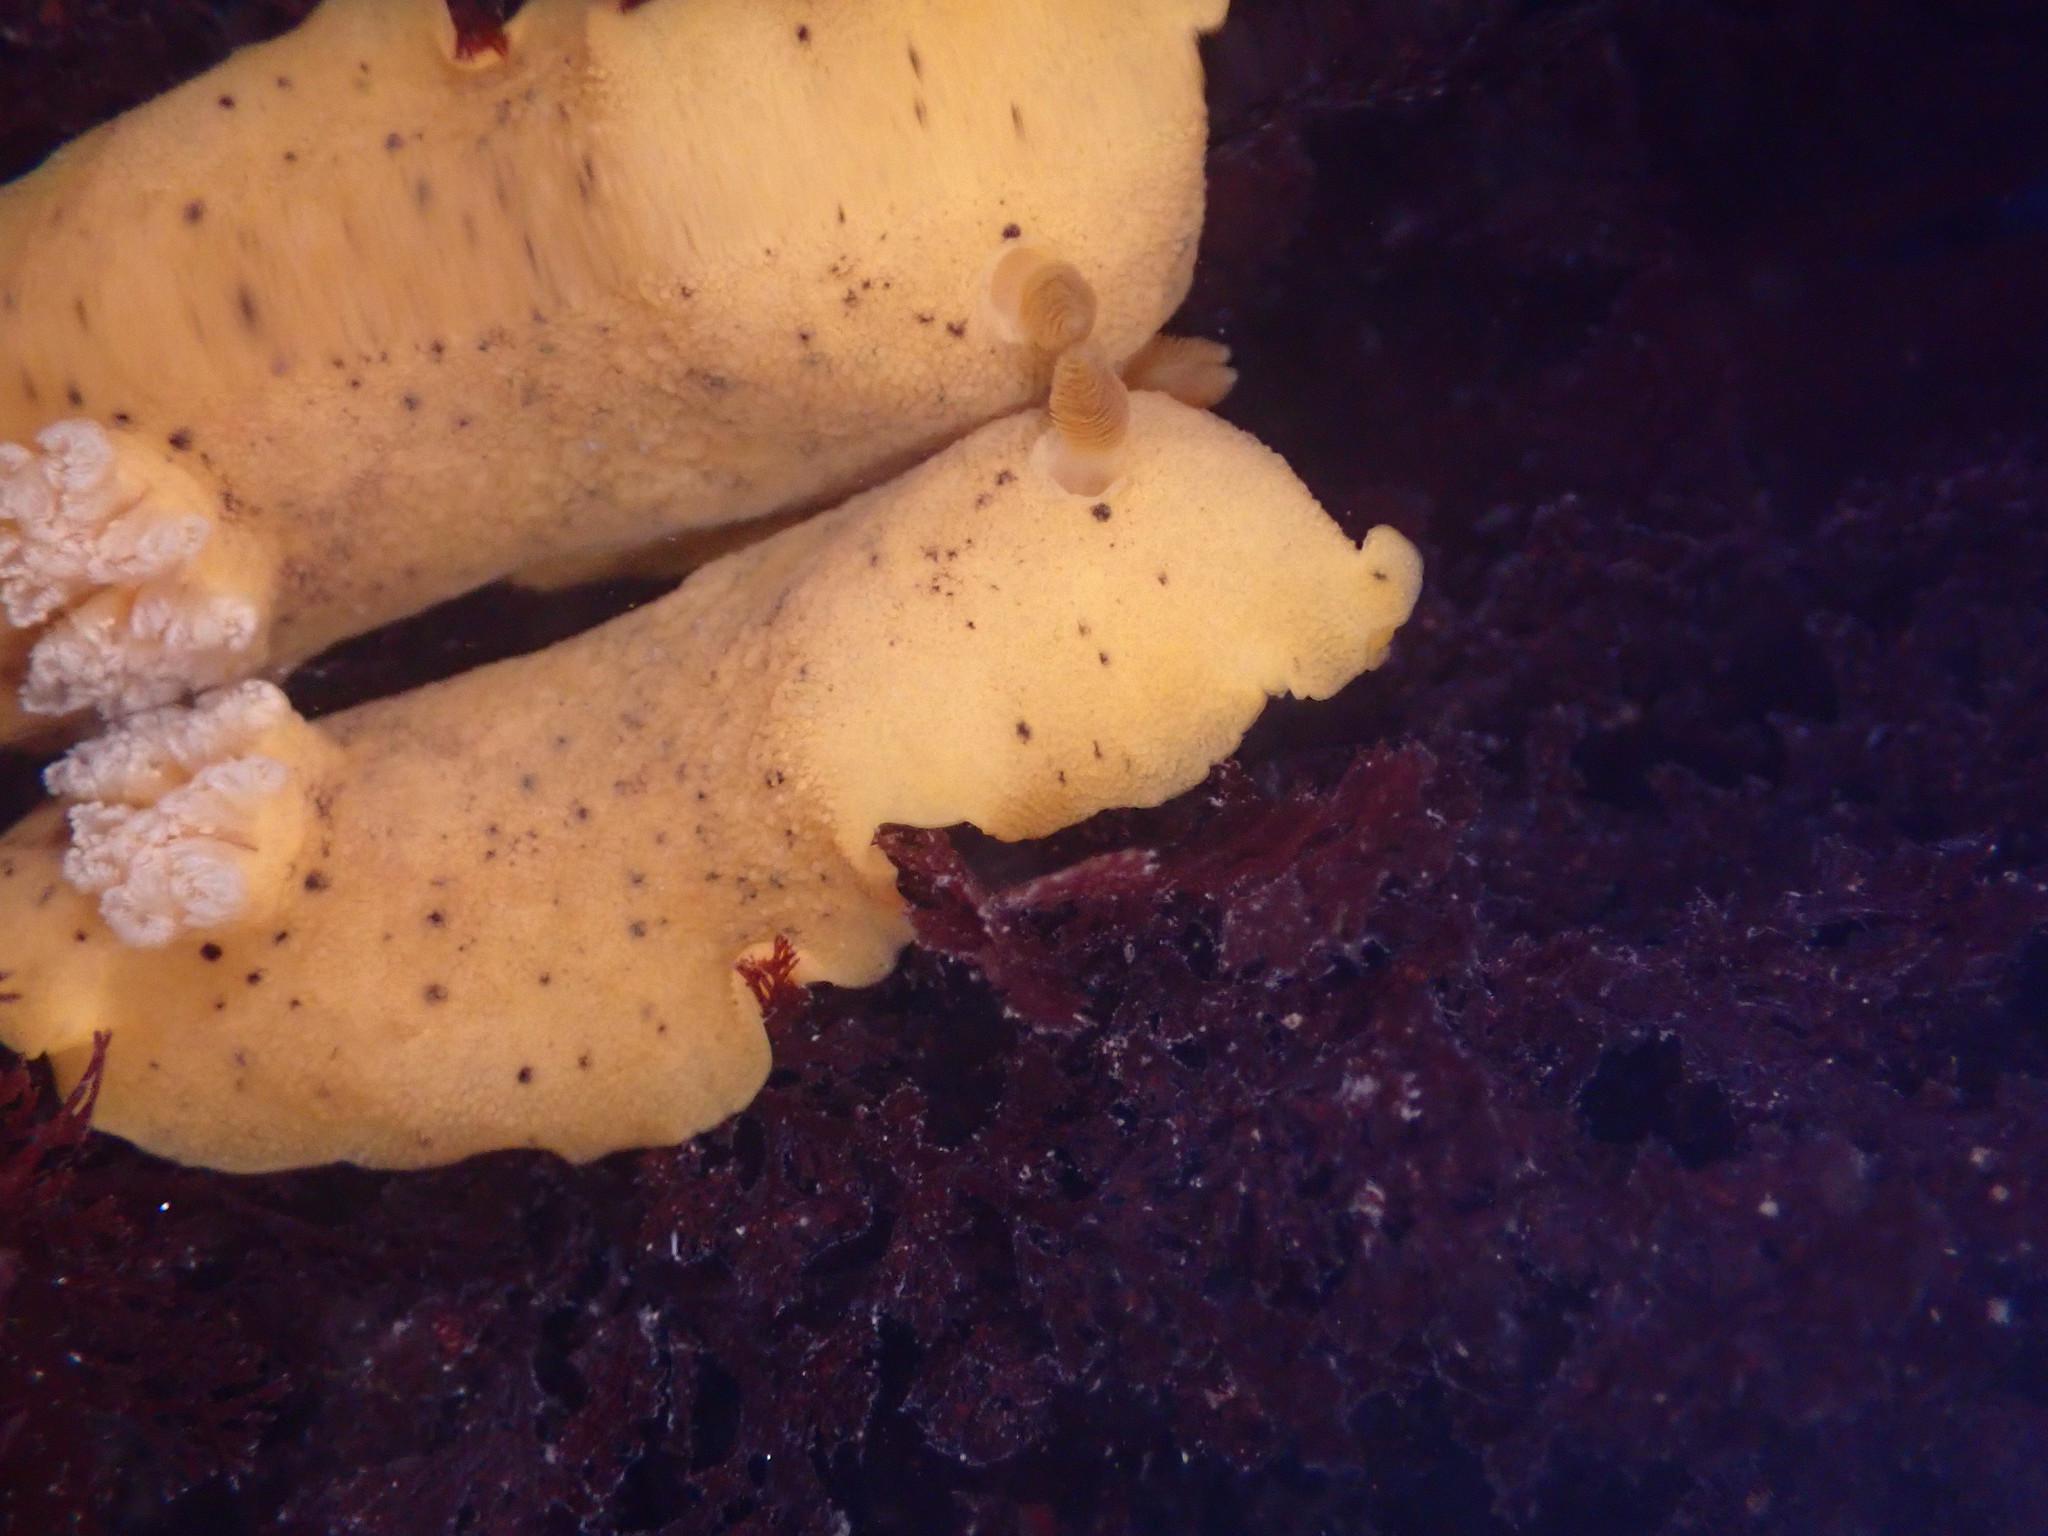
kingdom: Animalia
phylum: Mollusca
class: Gastropoda
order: Nudibranchia
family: Discodorididae
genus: Geitodoris
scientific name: Geitodoris heathi
